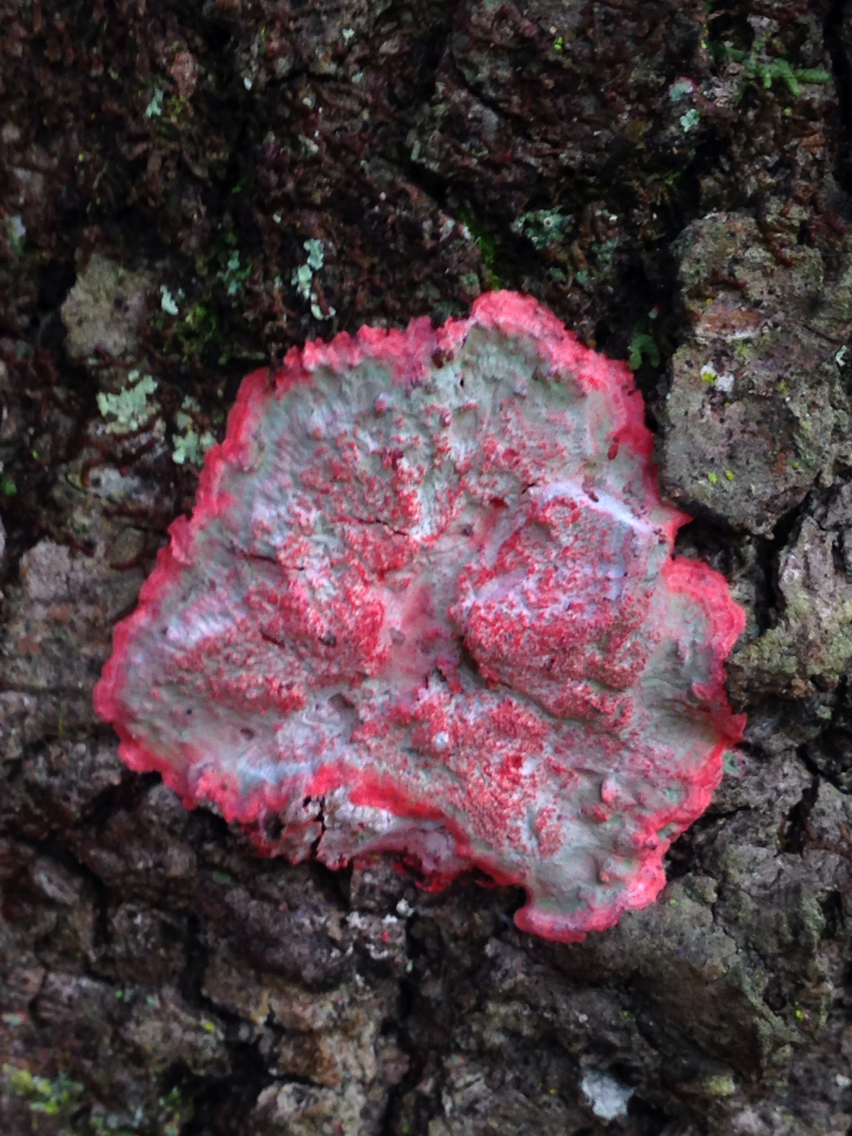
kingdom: Fungi
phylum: Ascomycota
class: Arthoniomycetes
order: Arthoniales
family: Arthoniaceae
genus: Herpothallon
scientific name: Herpothallon rubrocinctum
